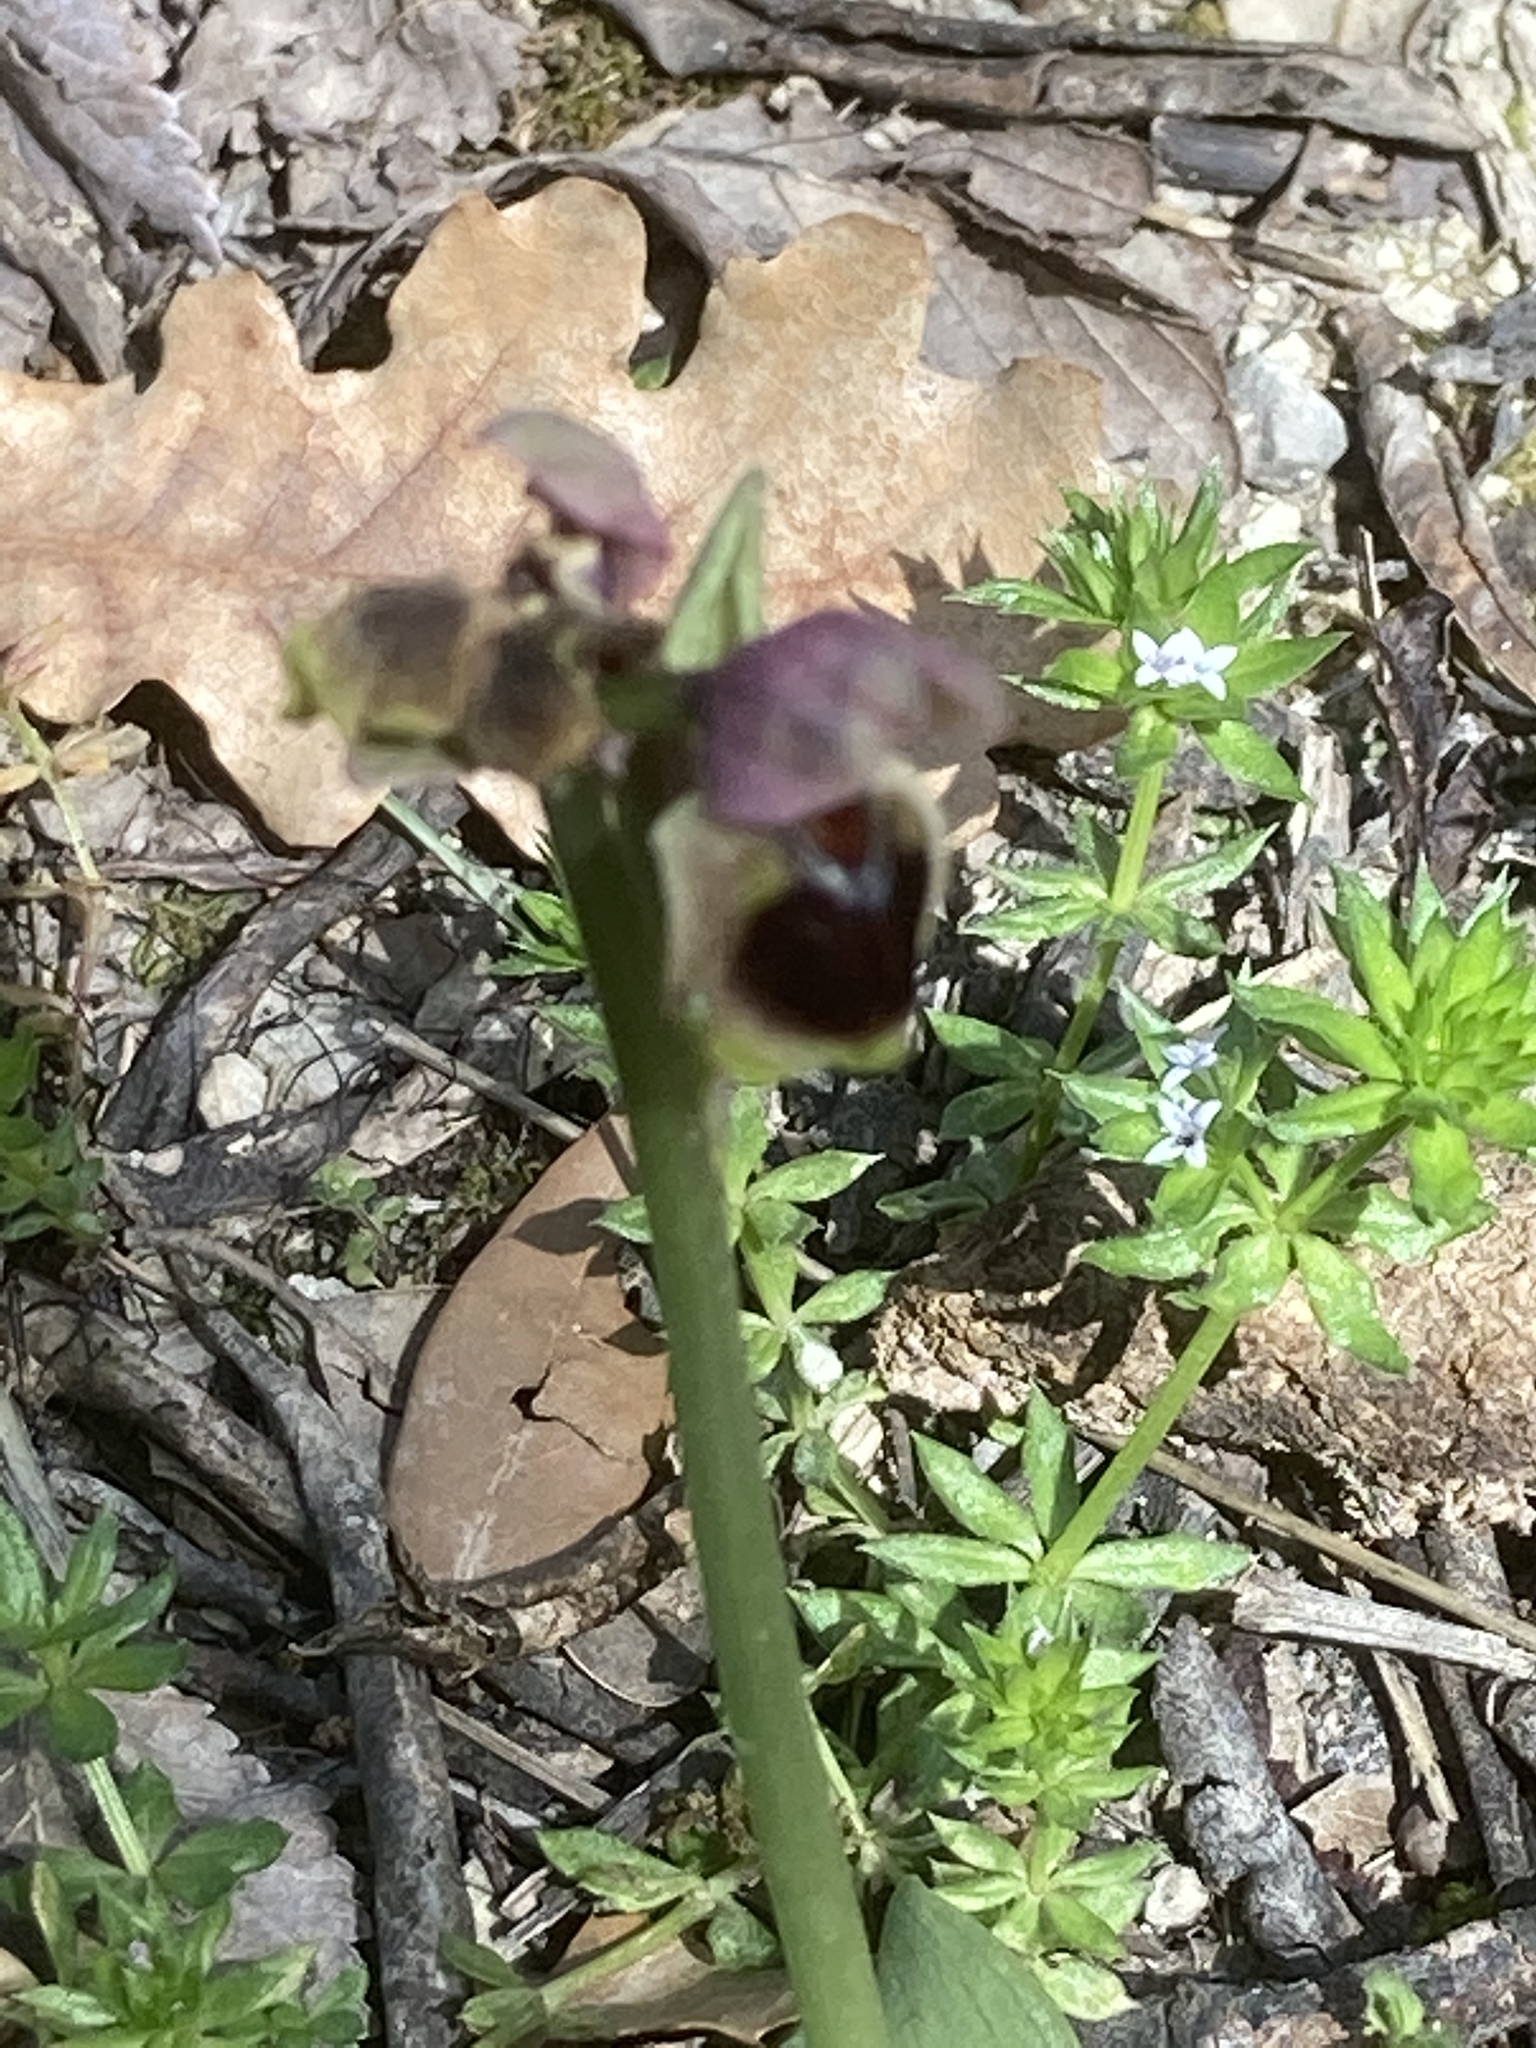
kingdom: Plantae
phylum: Tracheophyta
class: Liliopsida
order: Asparagales
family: Orchidaceae
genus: Ophrys
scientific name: Ophrys tenthredinifera
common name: Sawfly orchid
